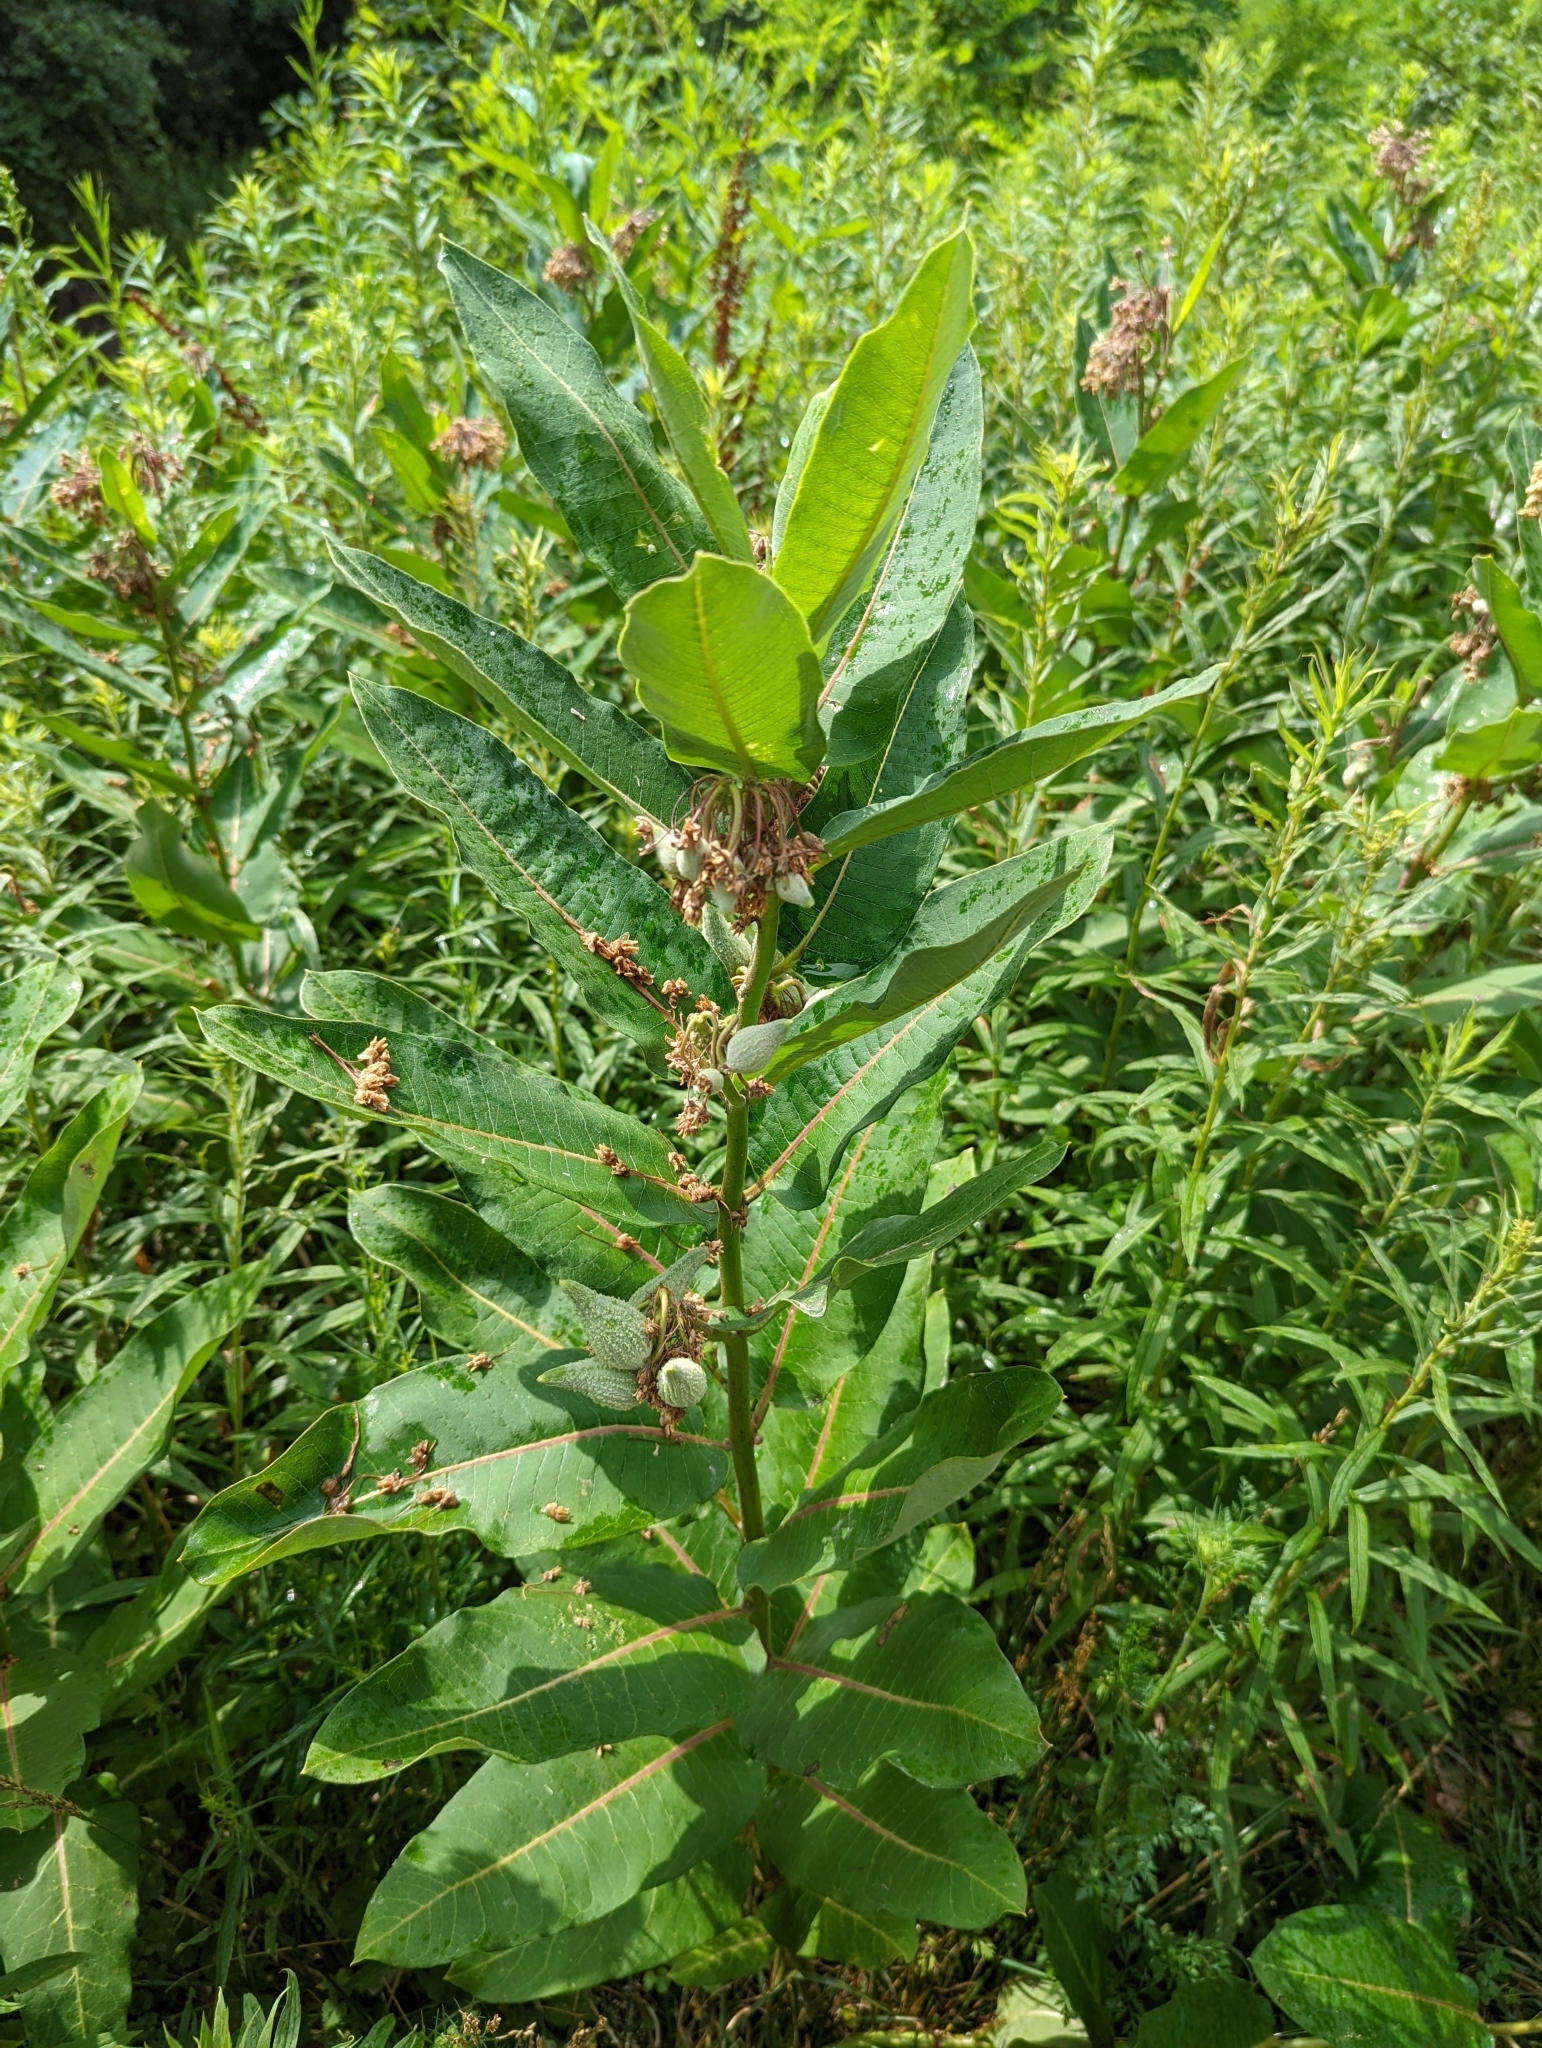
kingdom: Plantae
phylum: Tracheophyta
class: Magnoliopsida
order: Gentianales
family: Apocynaceae
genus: Asclepias
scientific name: Asclepias syriaca
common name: Common milkweed
